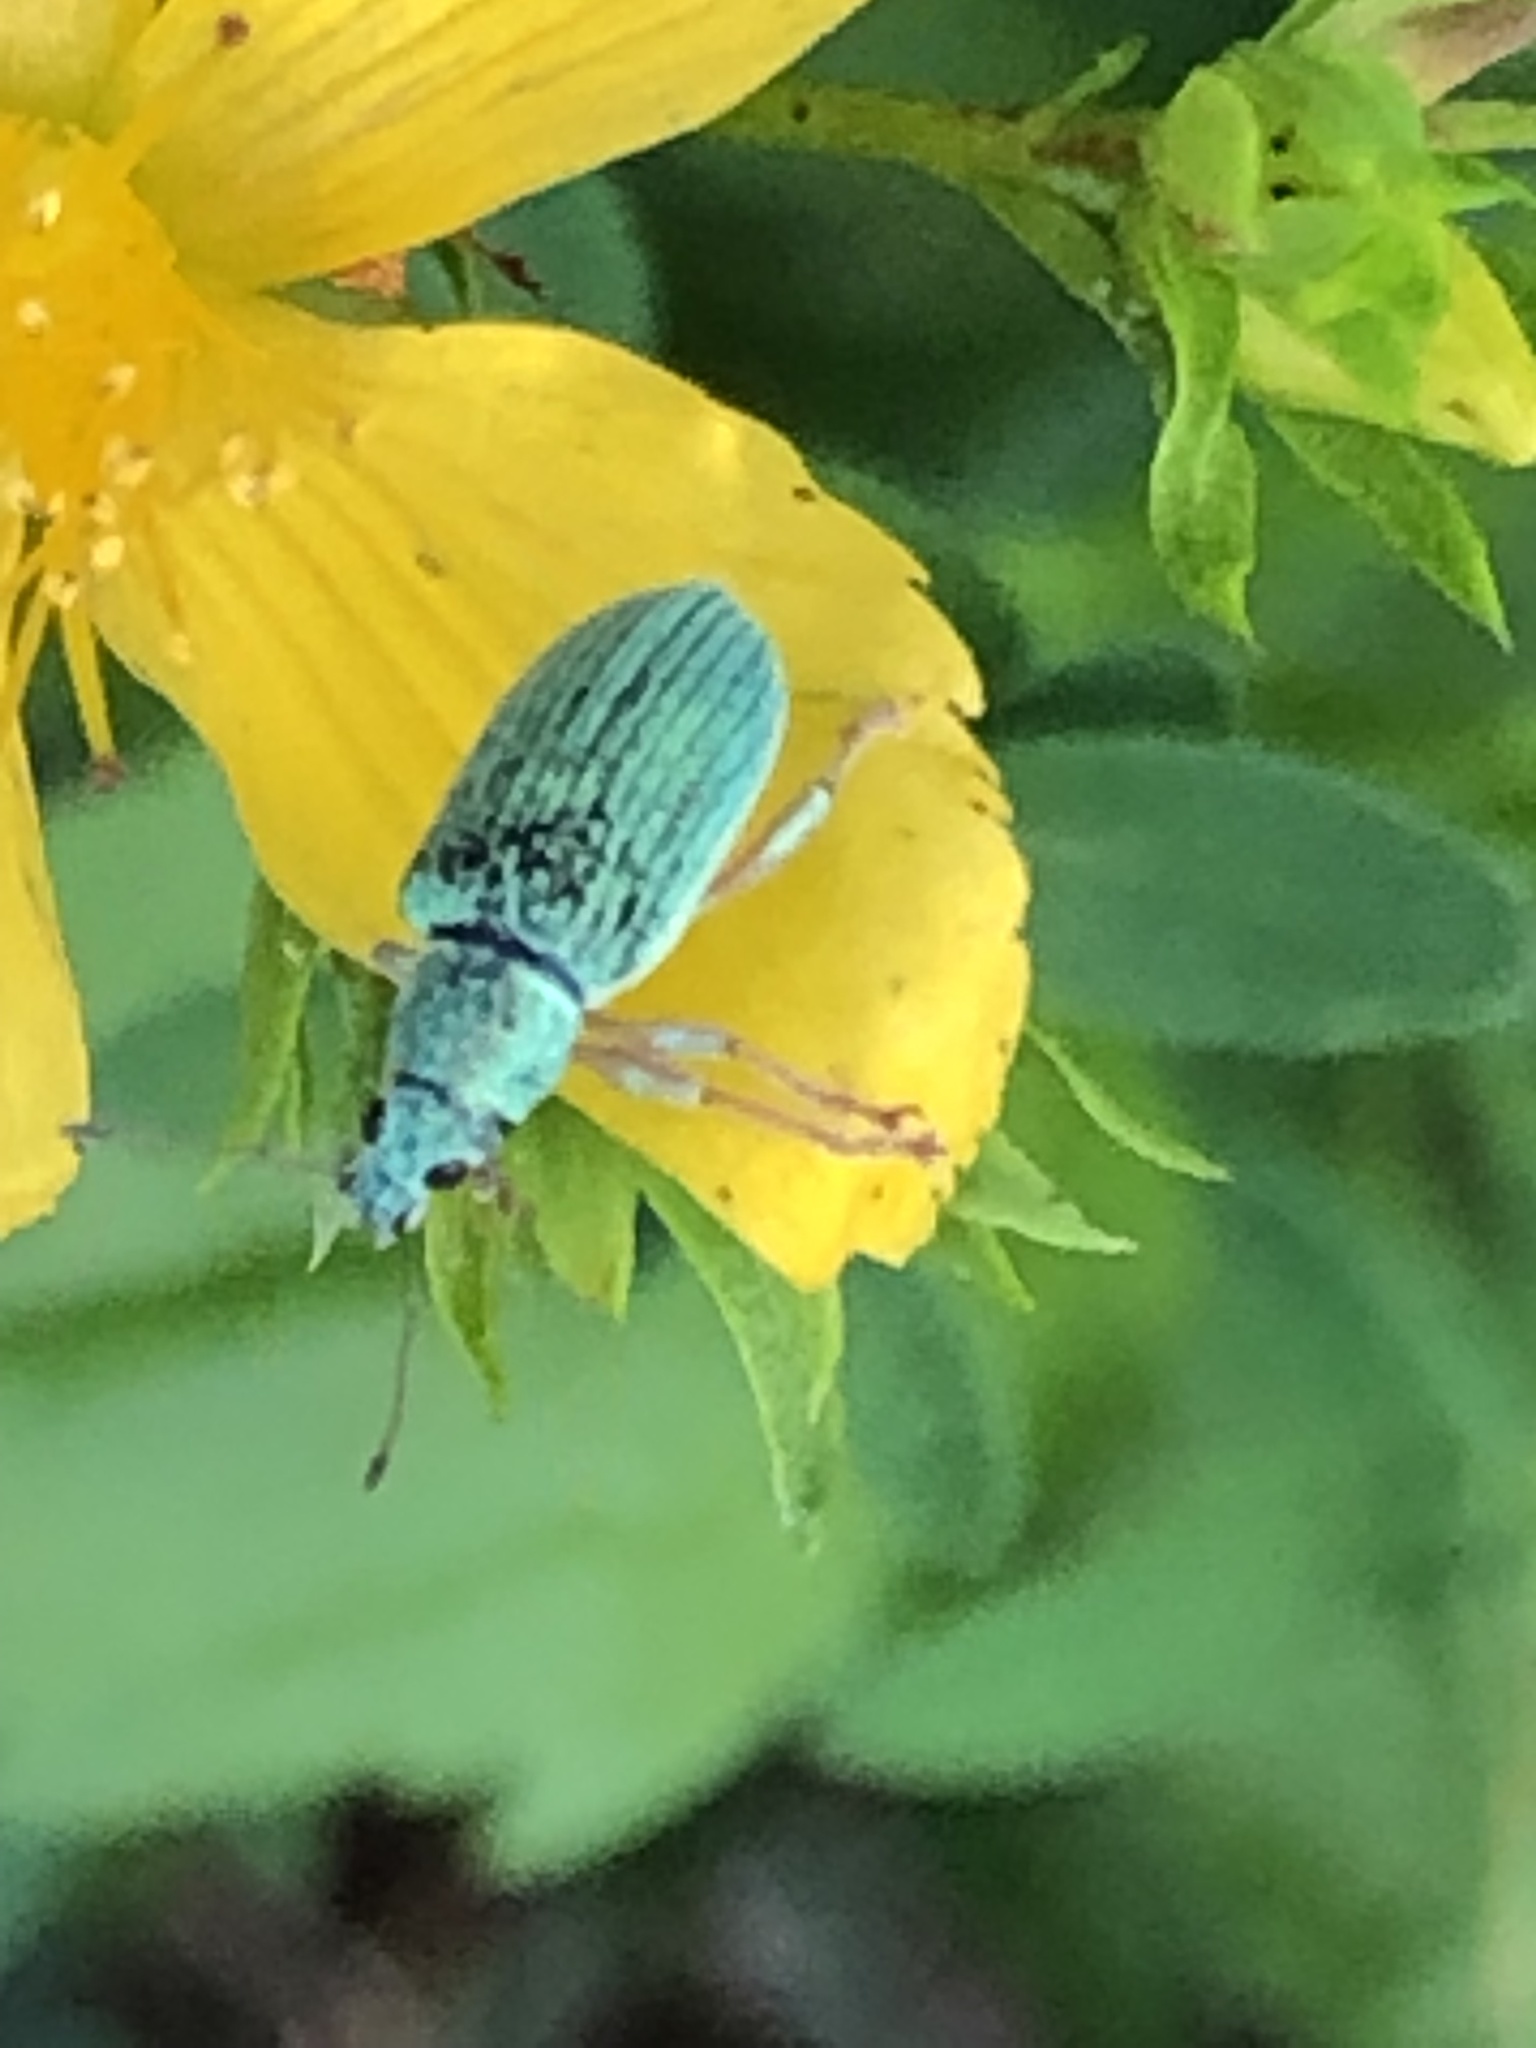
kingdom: Animalia
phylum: Arthropoda
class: Insecta
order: Coleoptera
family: Curculionidae
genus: Polydrusus
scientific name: Polydrusus formosus
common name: Weevil
